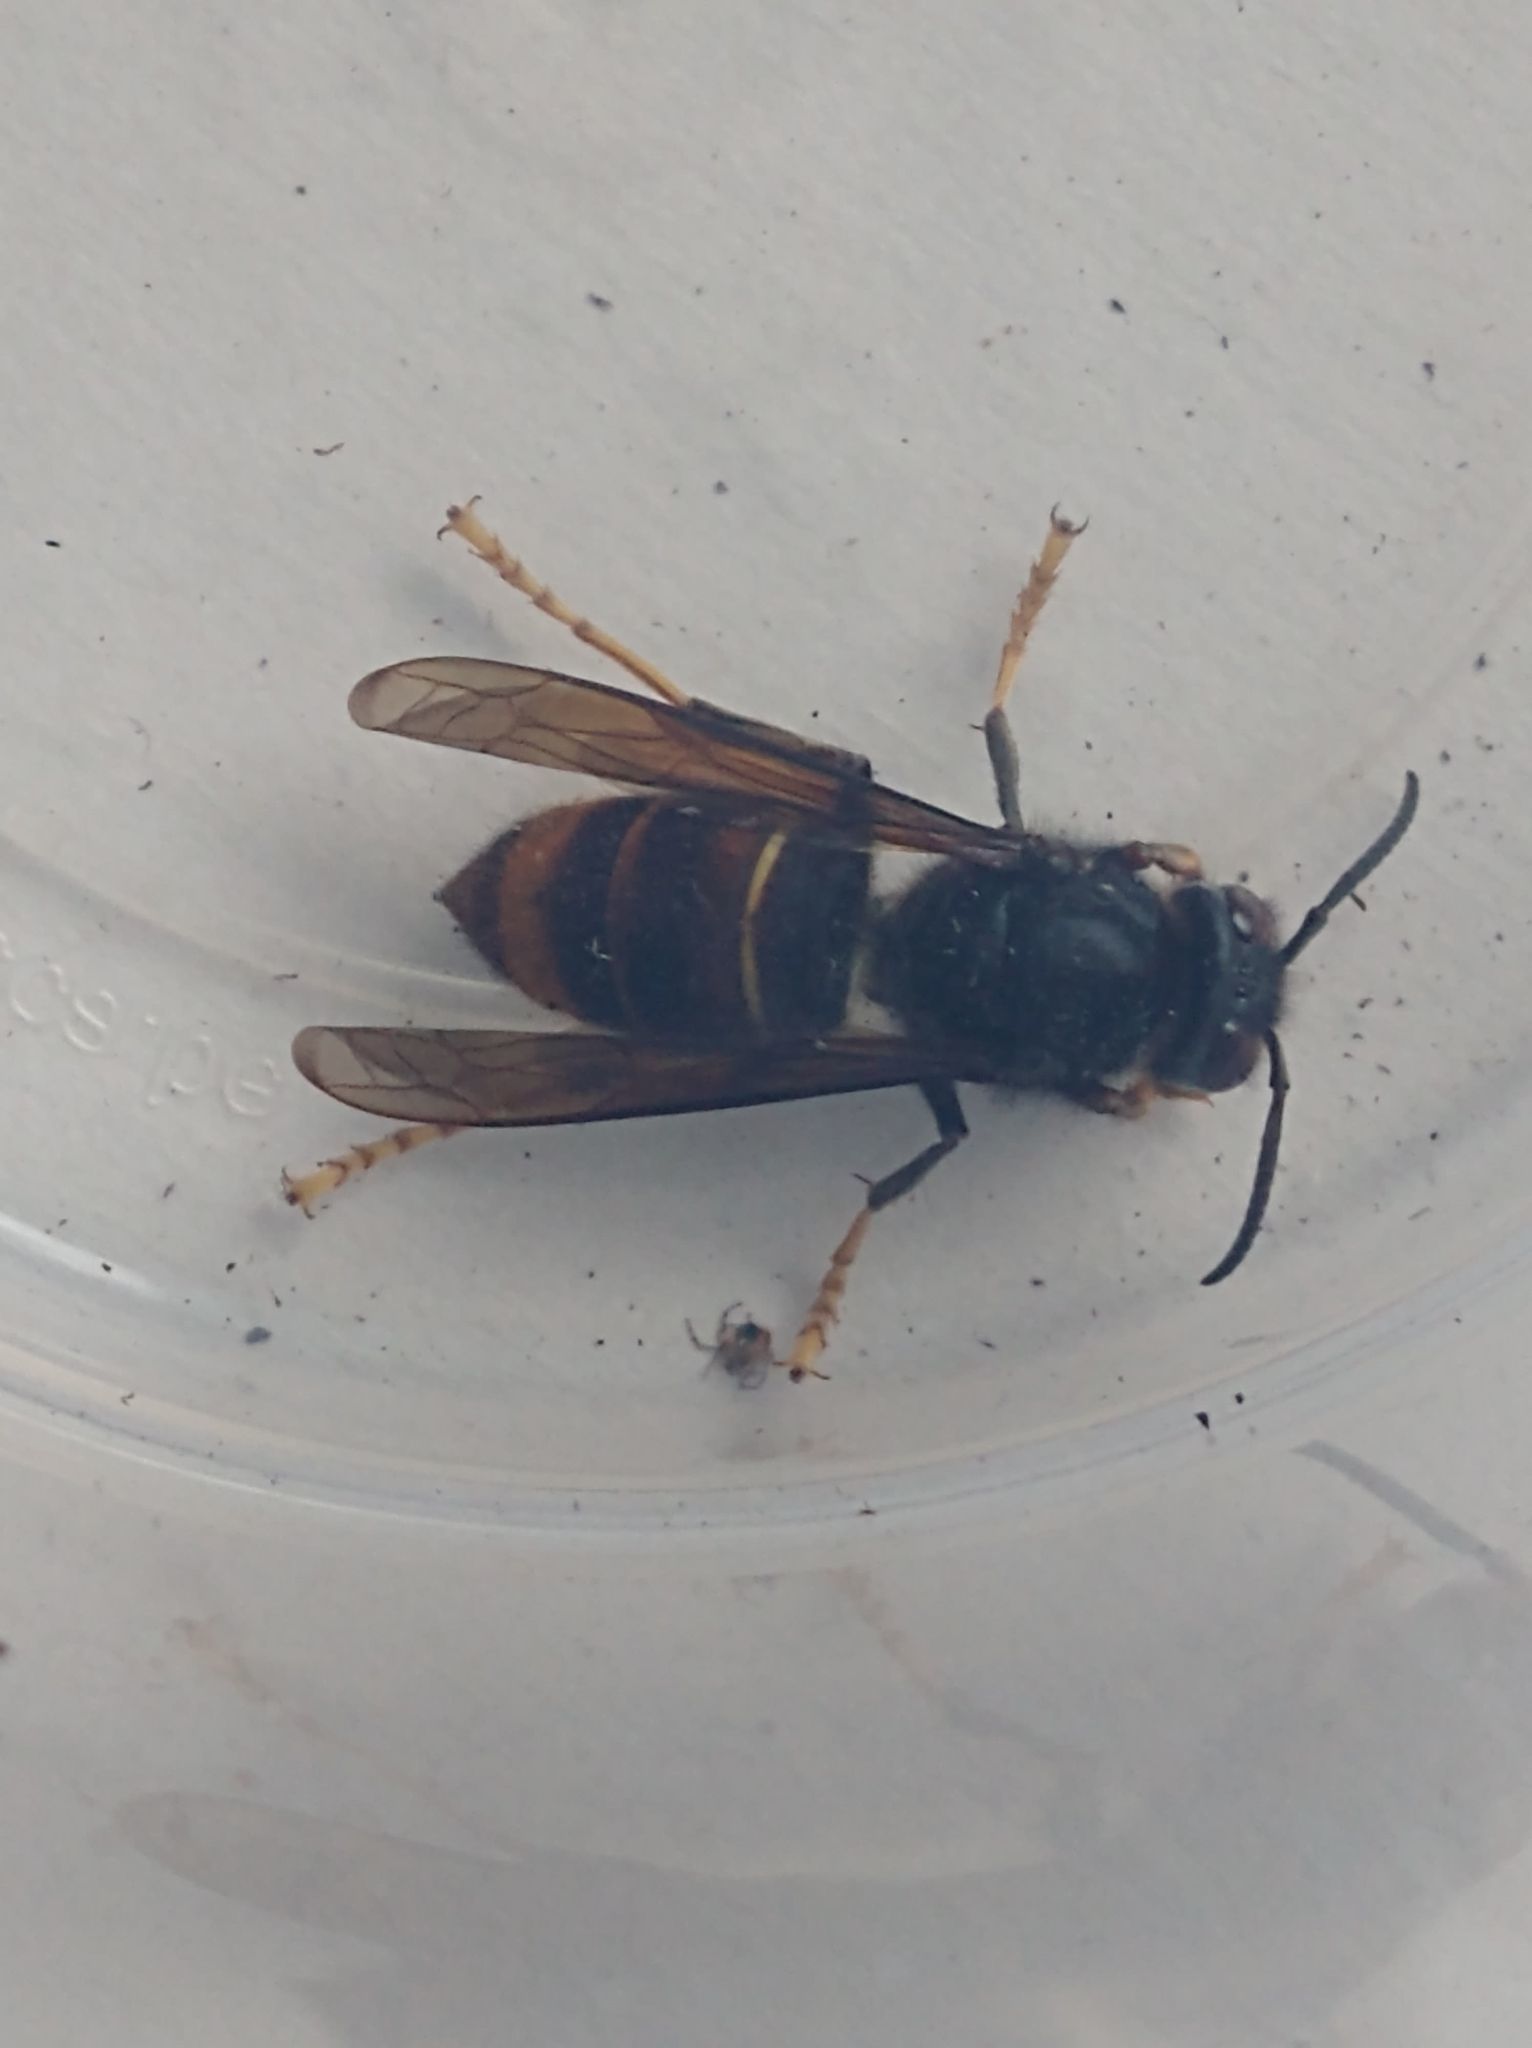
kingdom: Animalia
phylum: Arthropoda
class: Insecta
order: Hymenoptera
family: Vespidae
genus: Vespa
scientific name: Vespa velutina
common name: Asian hornet
